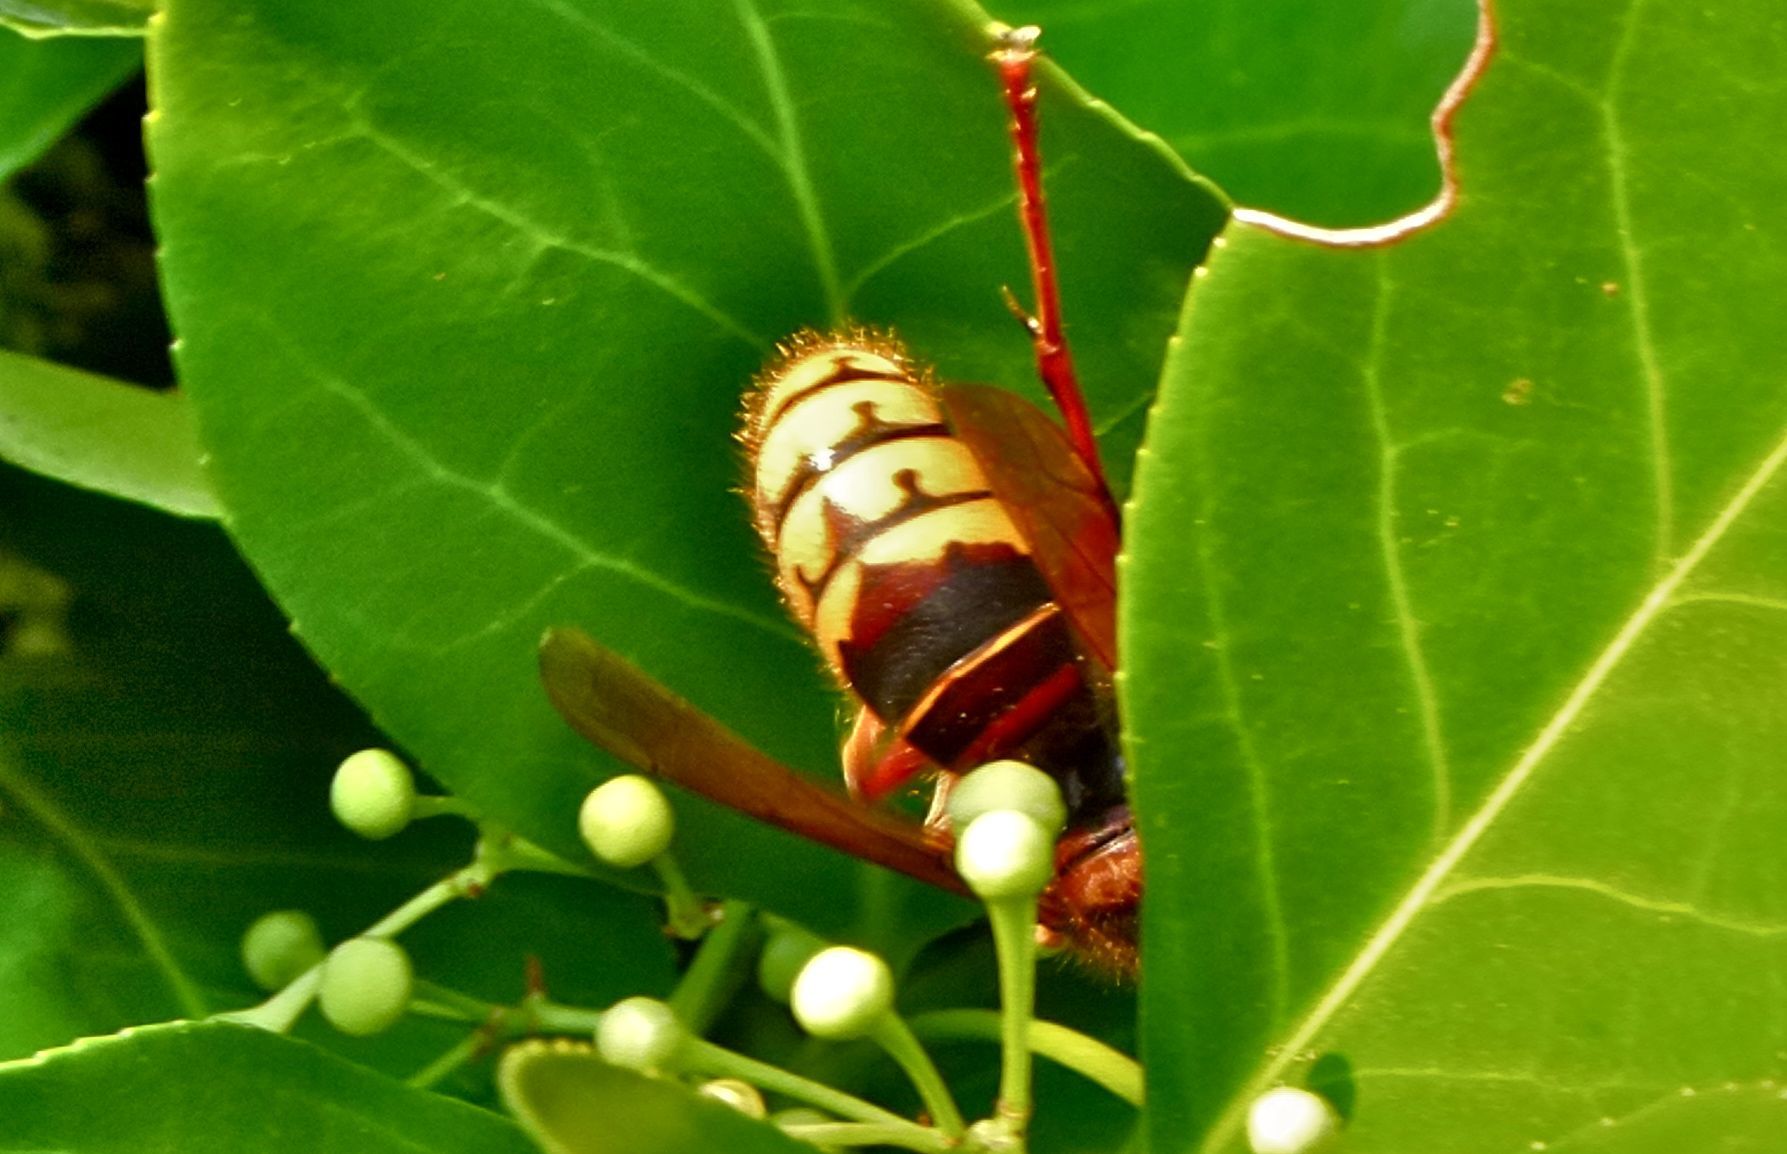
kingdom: Animalia
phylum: Arthropoda
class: Insecta
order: Hymenoptera
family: Vespidae
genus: Vespa
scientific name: Vespa crabro
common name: Hornet
